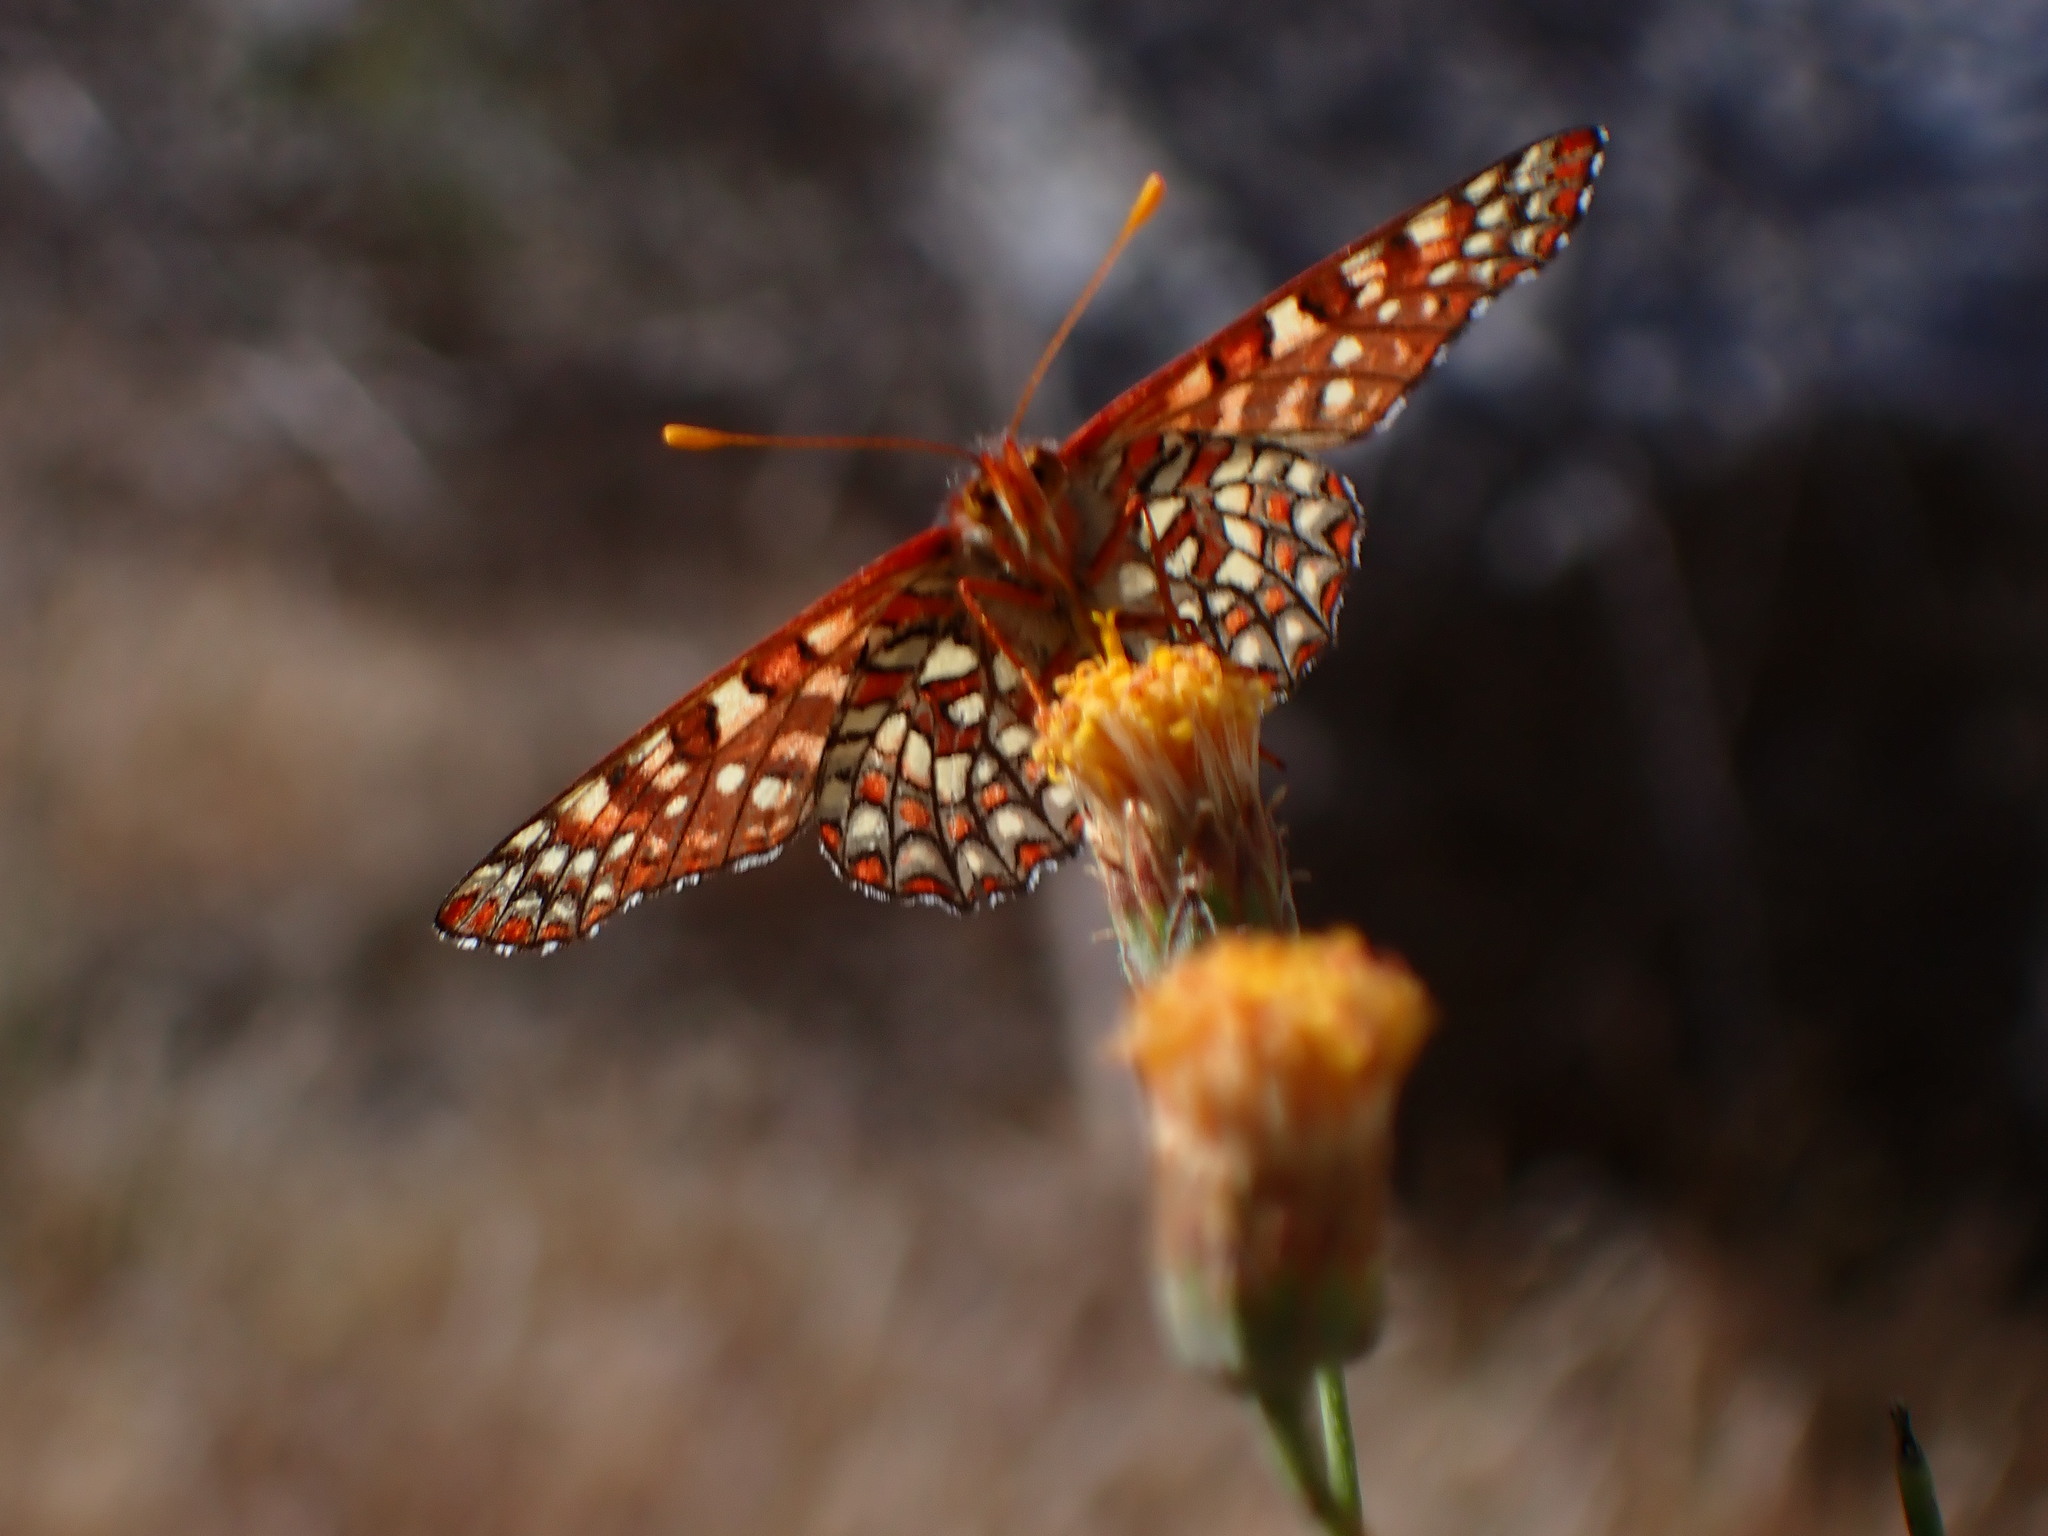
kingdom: Animalia
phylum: Arthropoda
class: Insecta
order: Lepidoptera
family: Nymphalidae
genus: Occidryas
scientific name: Occidryas chalcedona
